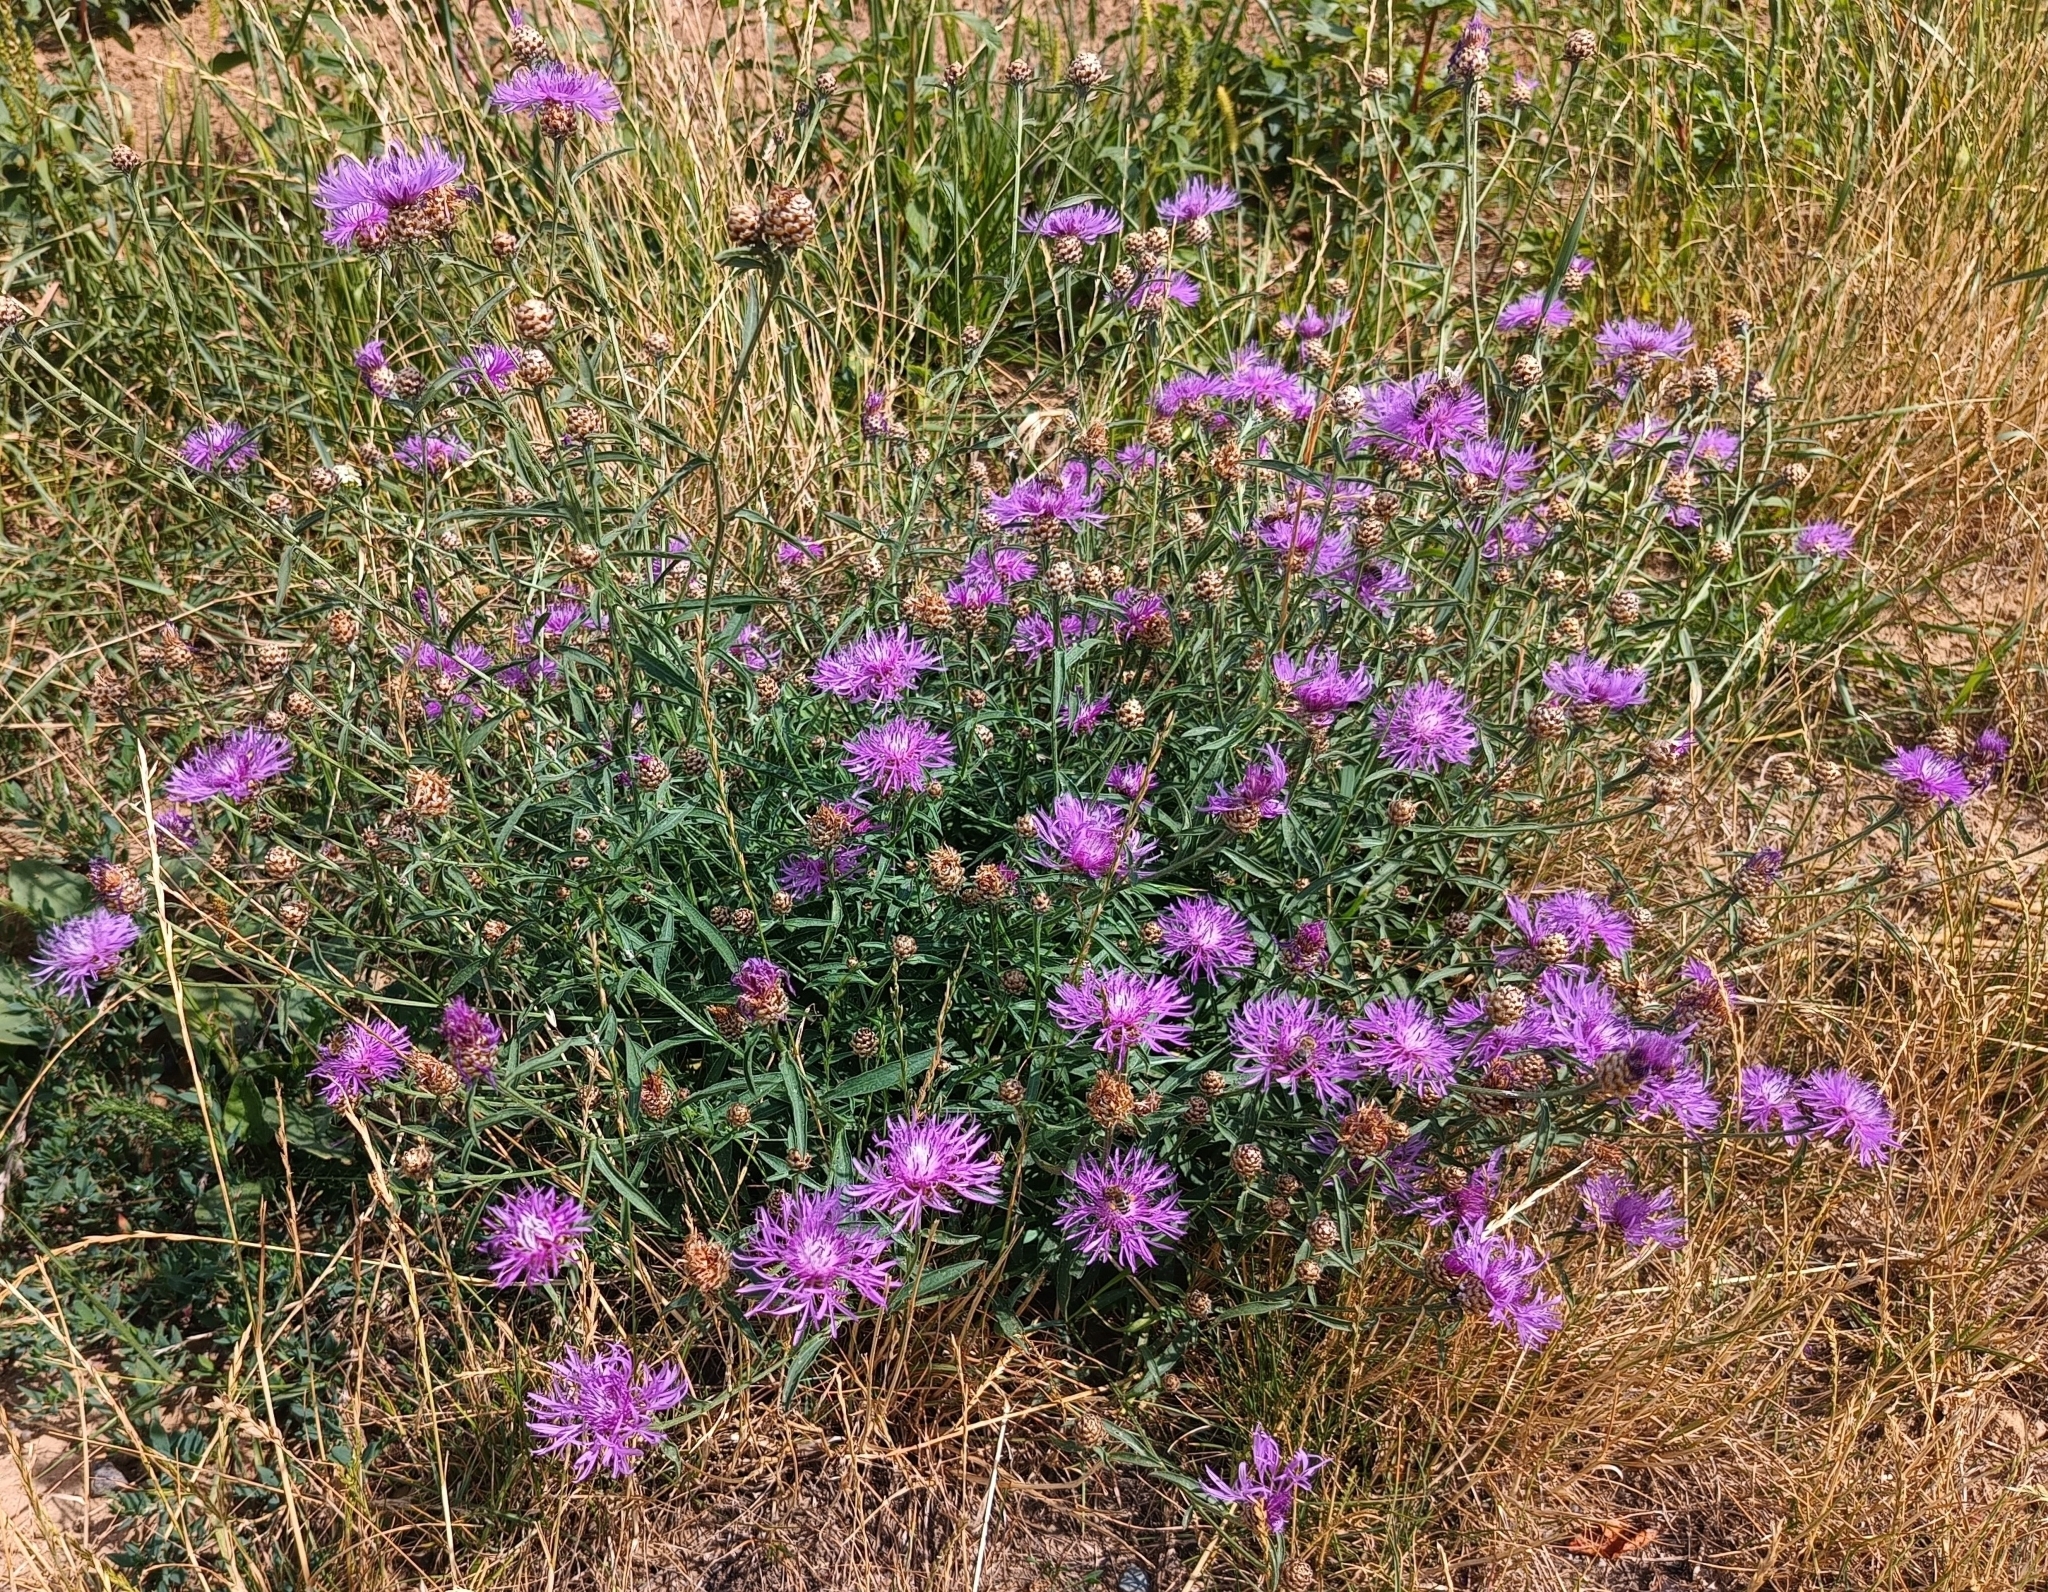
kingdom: Plantae
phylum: Tracheophyta
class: Magnoliopsida
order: Asterales
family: Asteraceae
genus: Centaurea
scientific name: Centaurea jacea
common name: Brown knapweed
